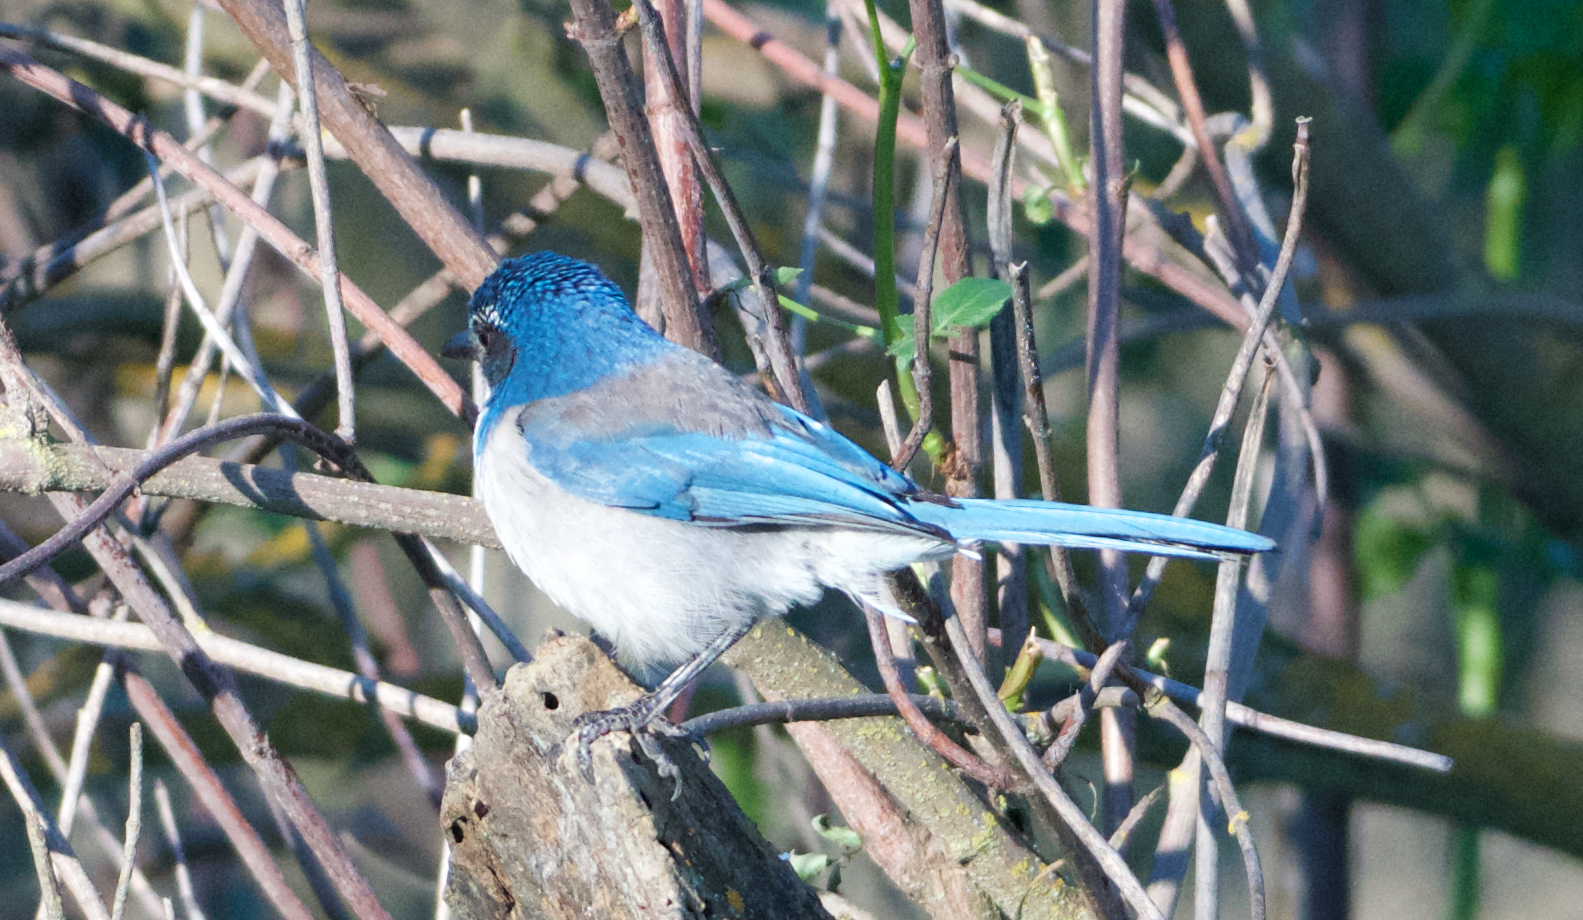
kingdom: Animalia
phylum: Chordata
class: Aves
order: Passeriformes
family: Corvidae
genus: Aphelocoma
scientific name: Aphelocoma californica
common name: California scrub-jay
